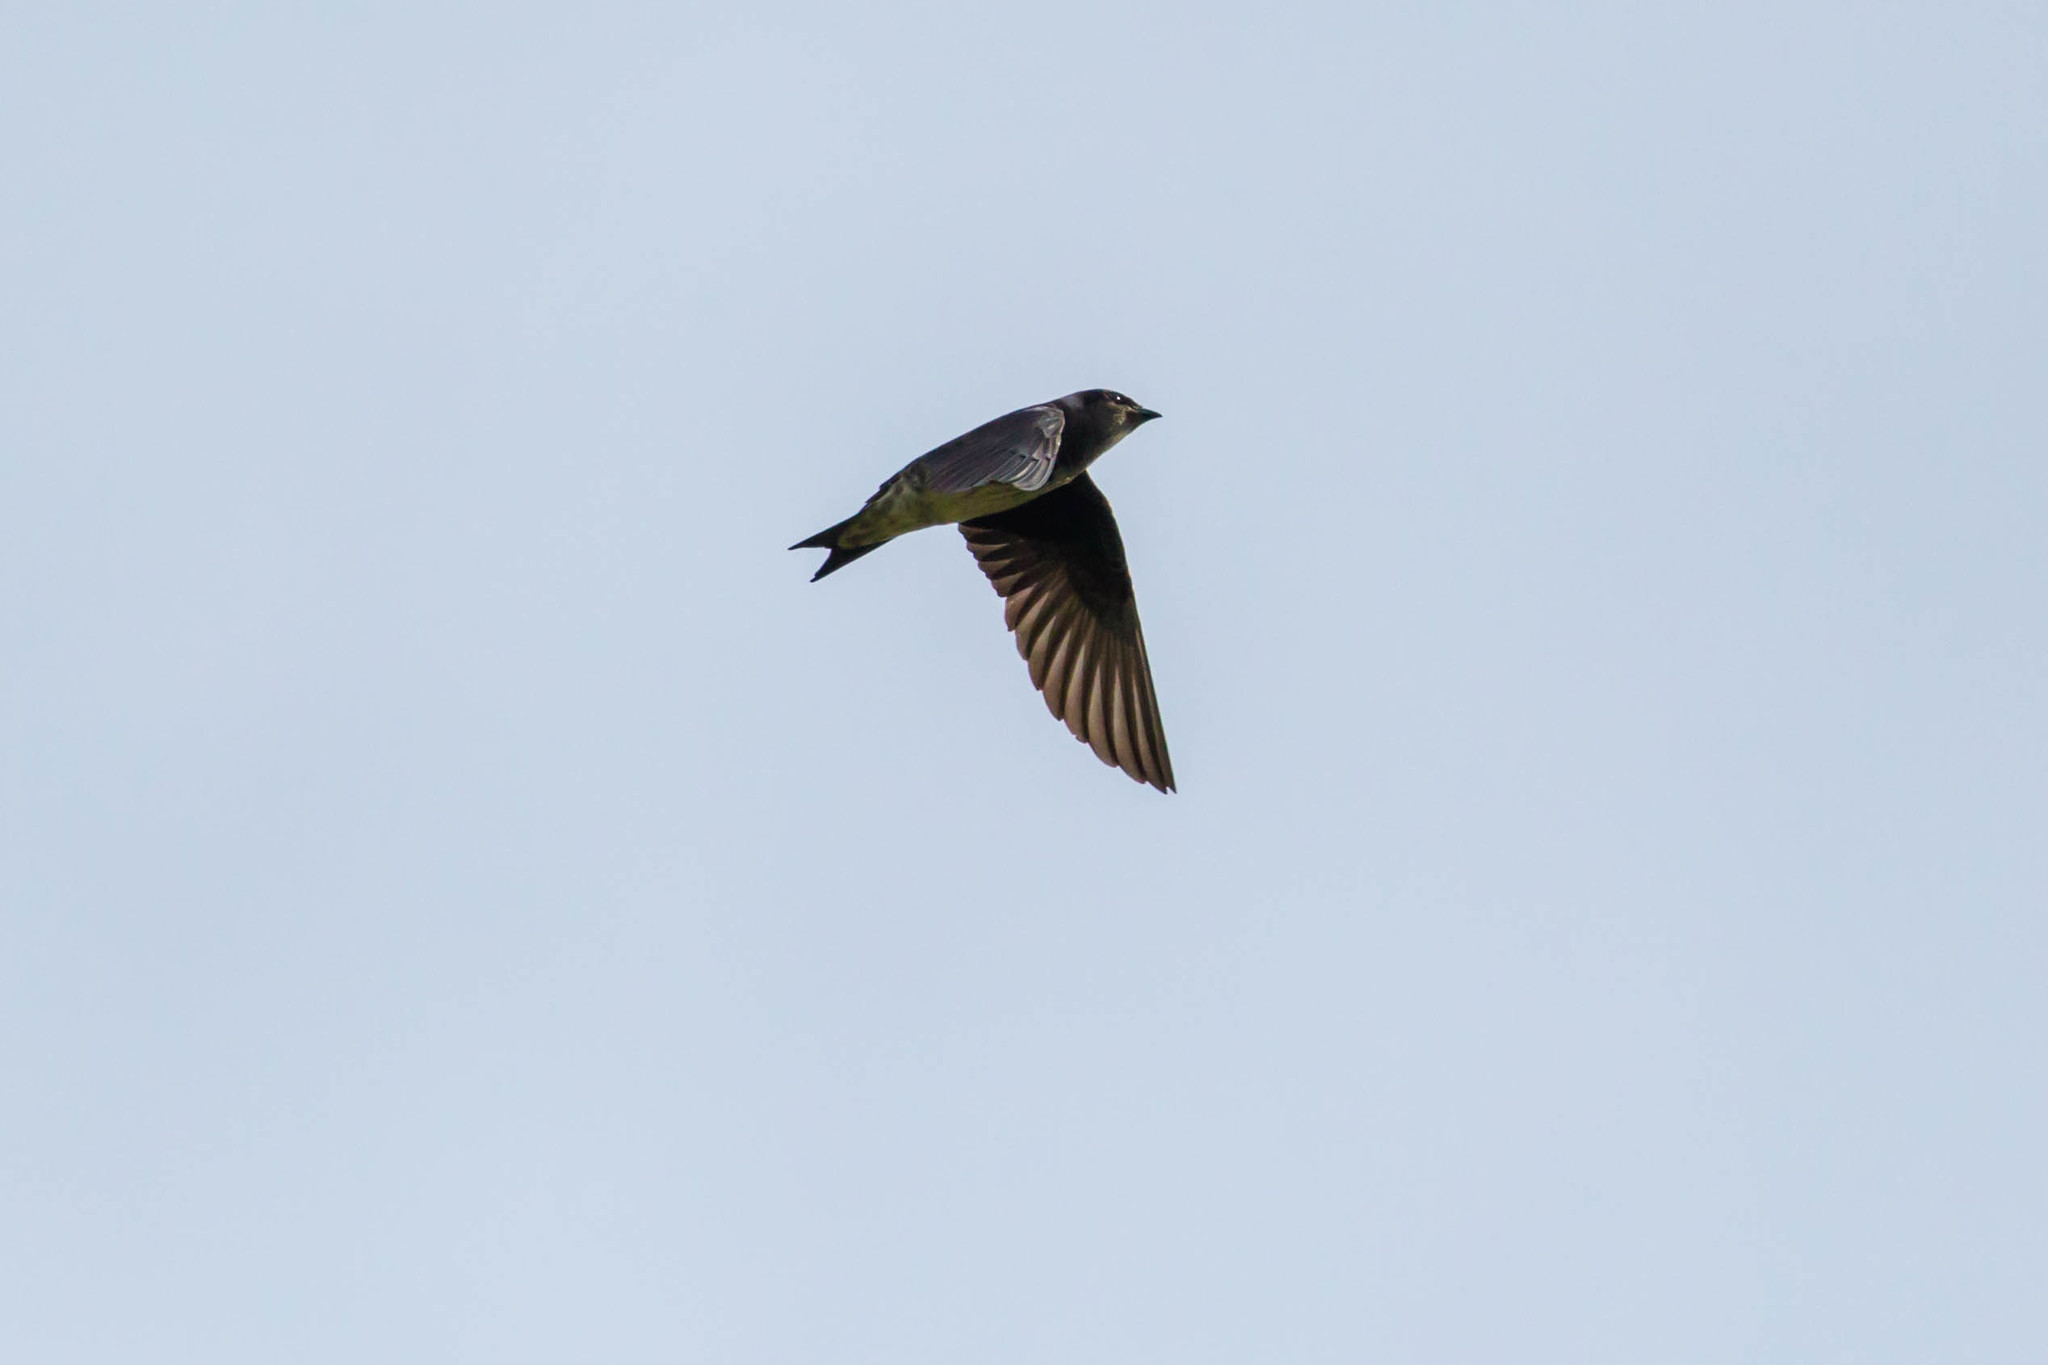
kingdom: Animalia
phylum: Chordata
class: Aves
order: Passeriformes
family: Hirundinidae
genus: Progne
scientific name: Progne subis
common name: Purple martin
